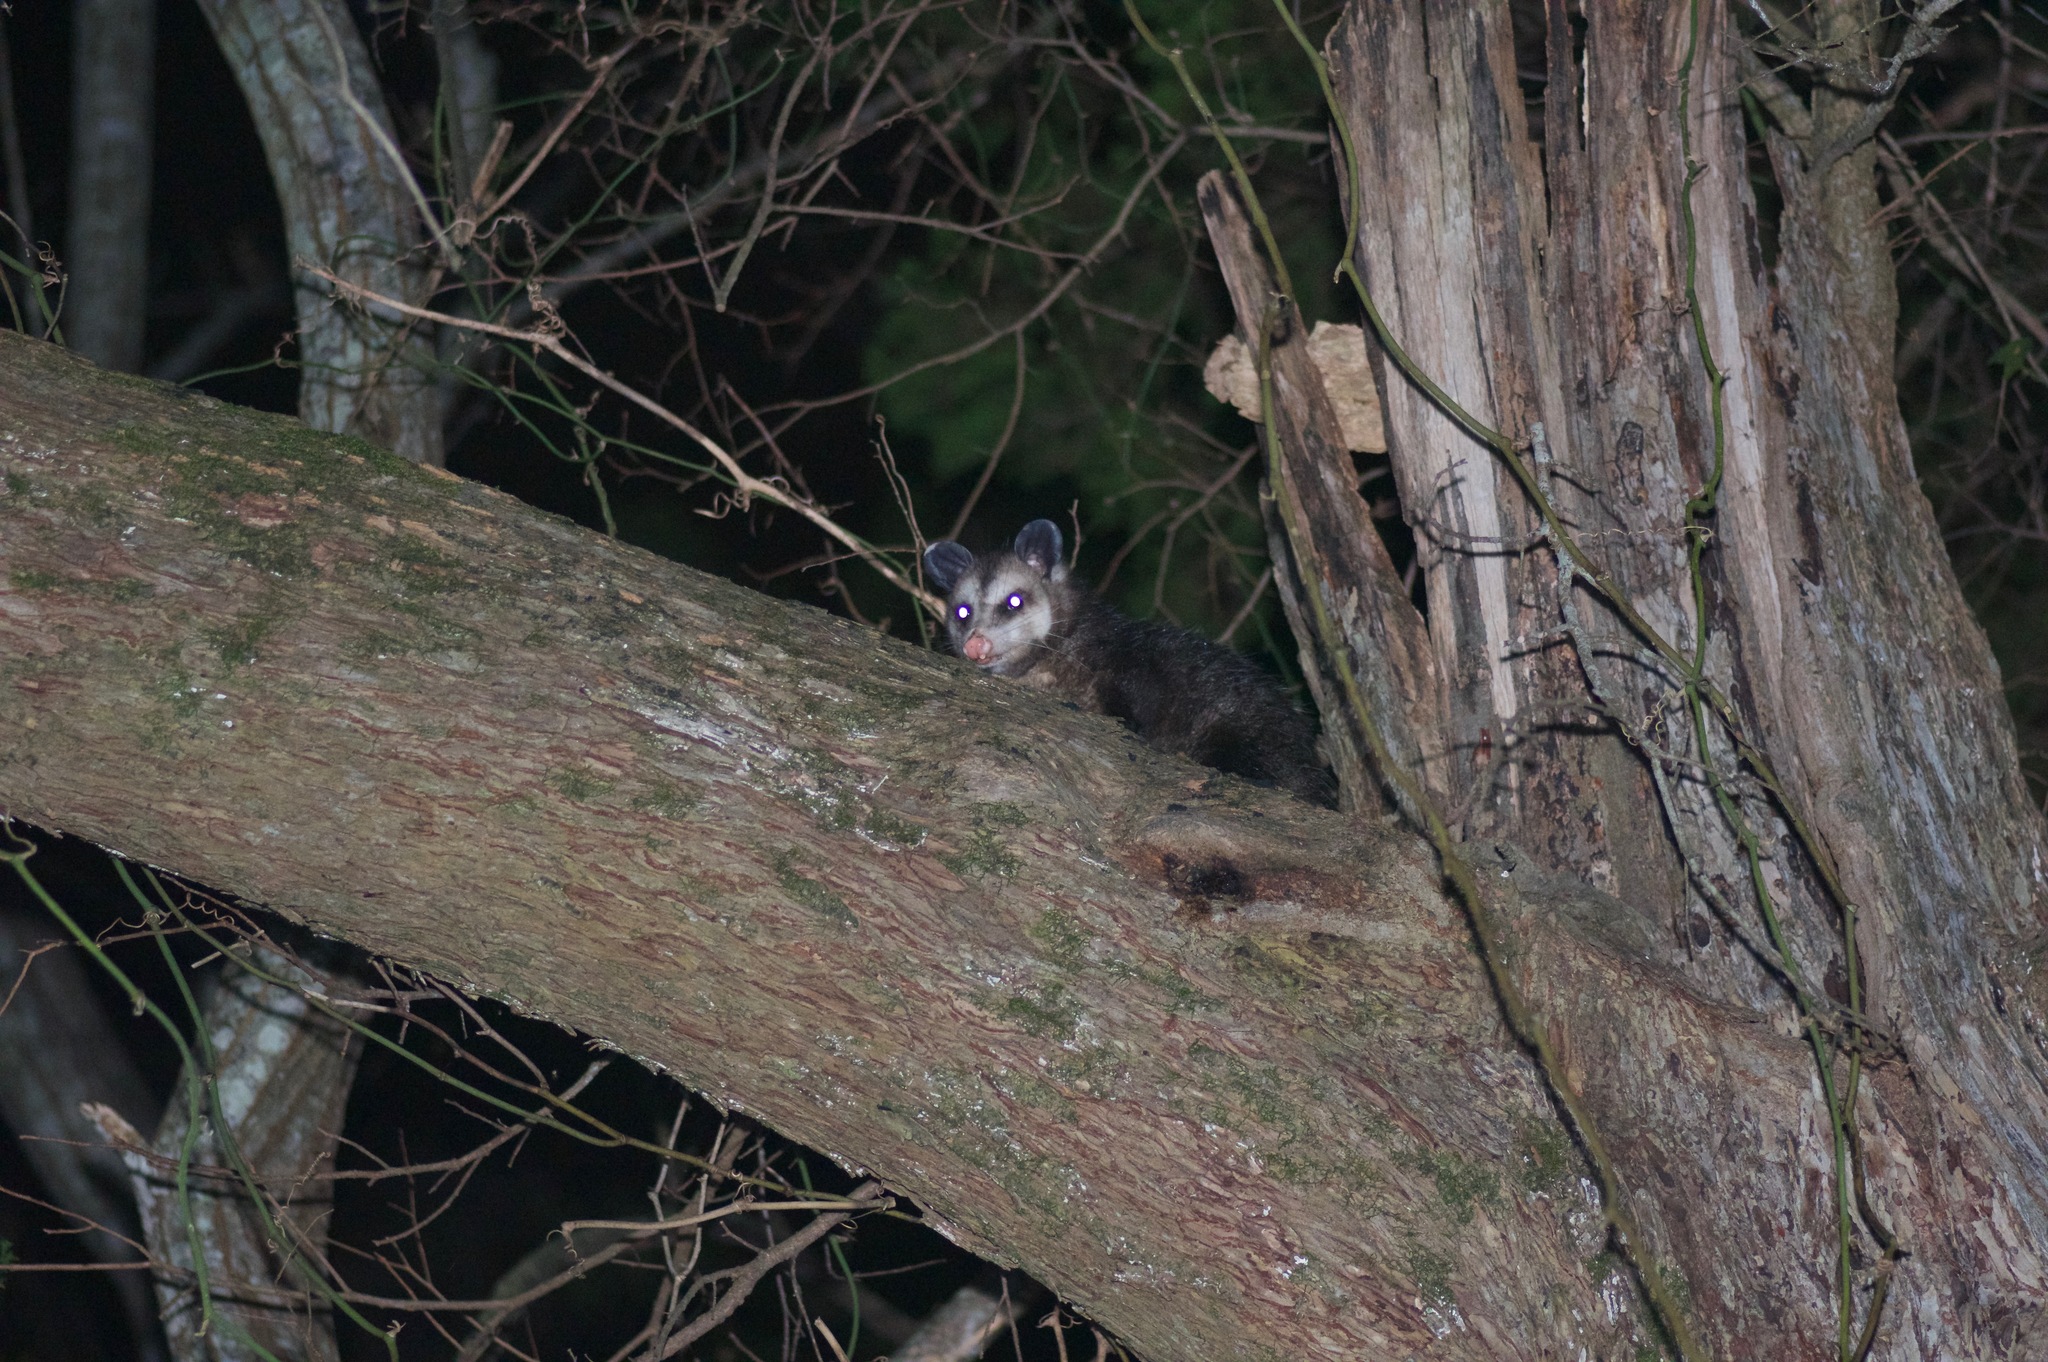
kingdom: Animalia
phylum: Chordata
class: Mammalia
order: Didelphimorphia
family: Didelphidae
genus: Didelphis
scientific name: Didelphis virginiana
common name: Virginia opossum
